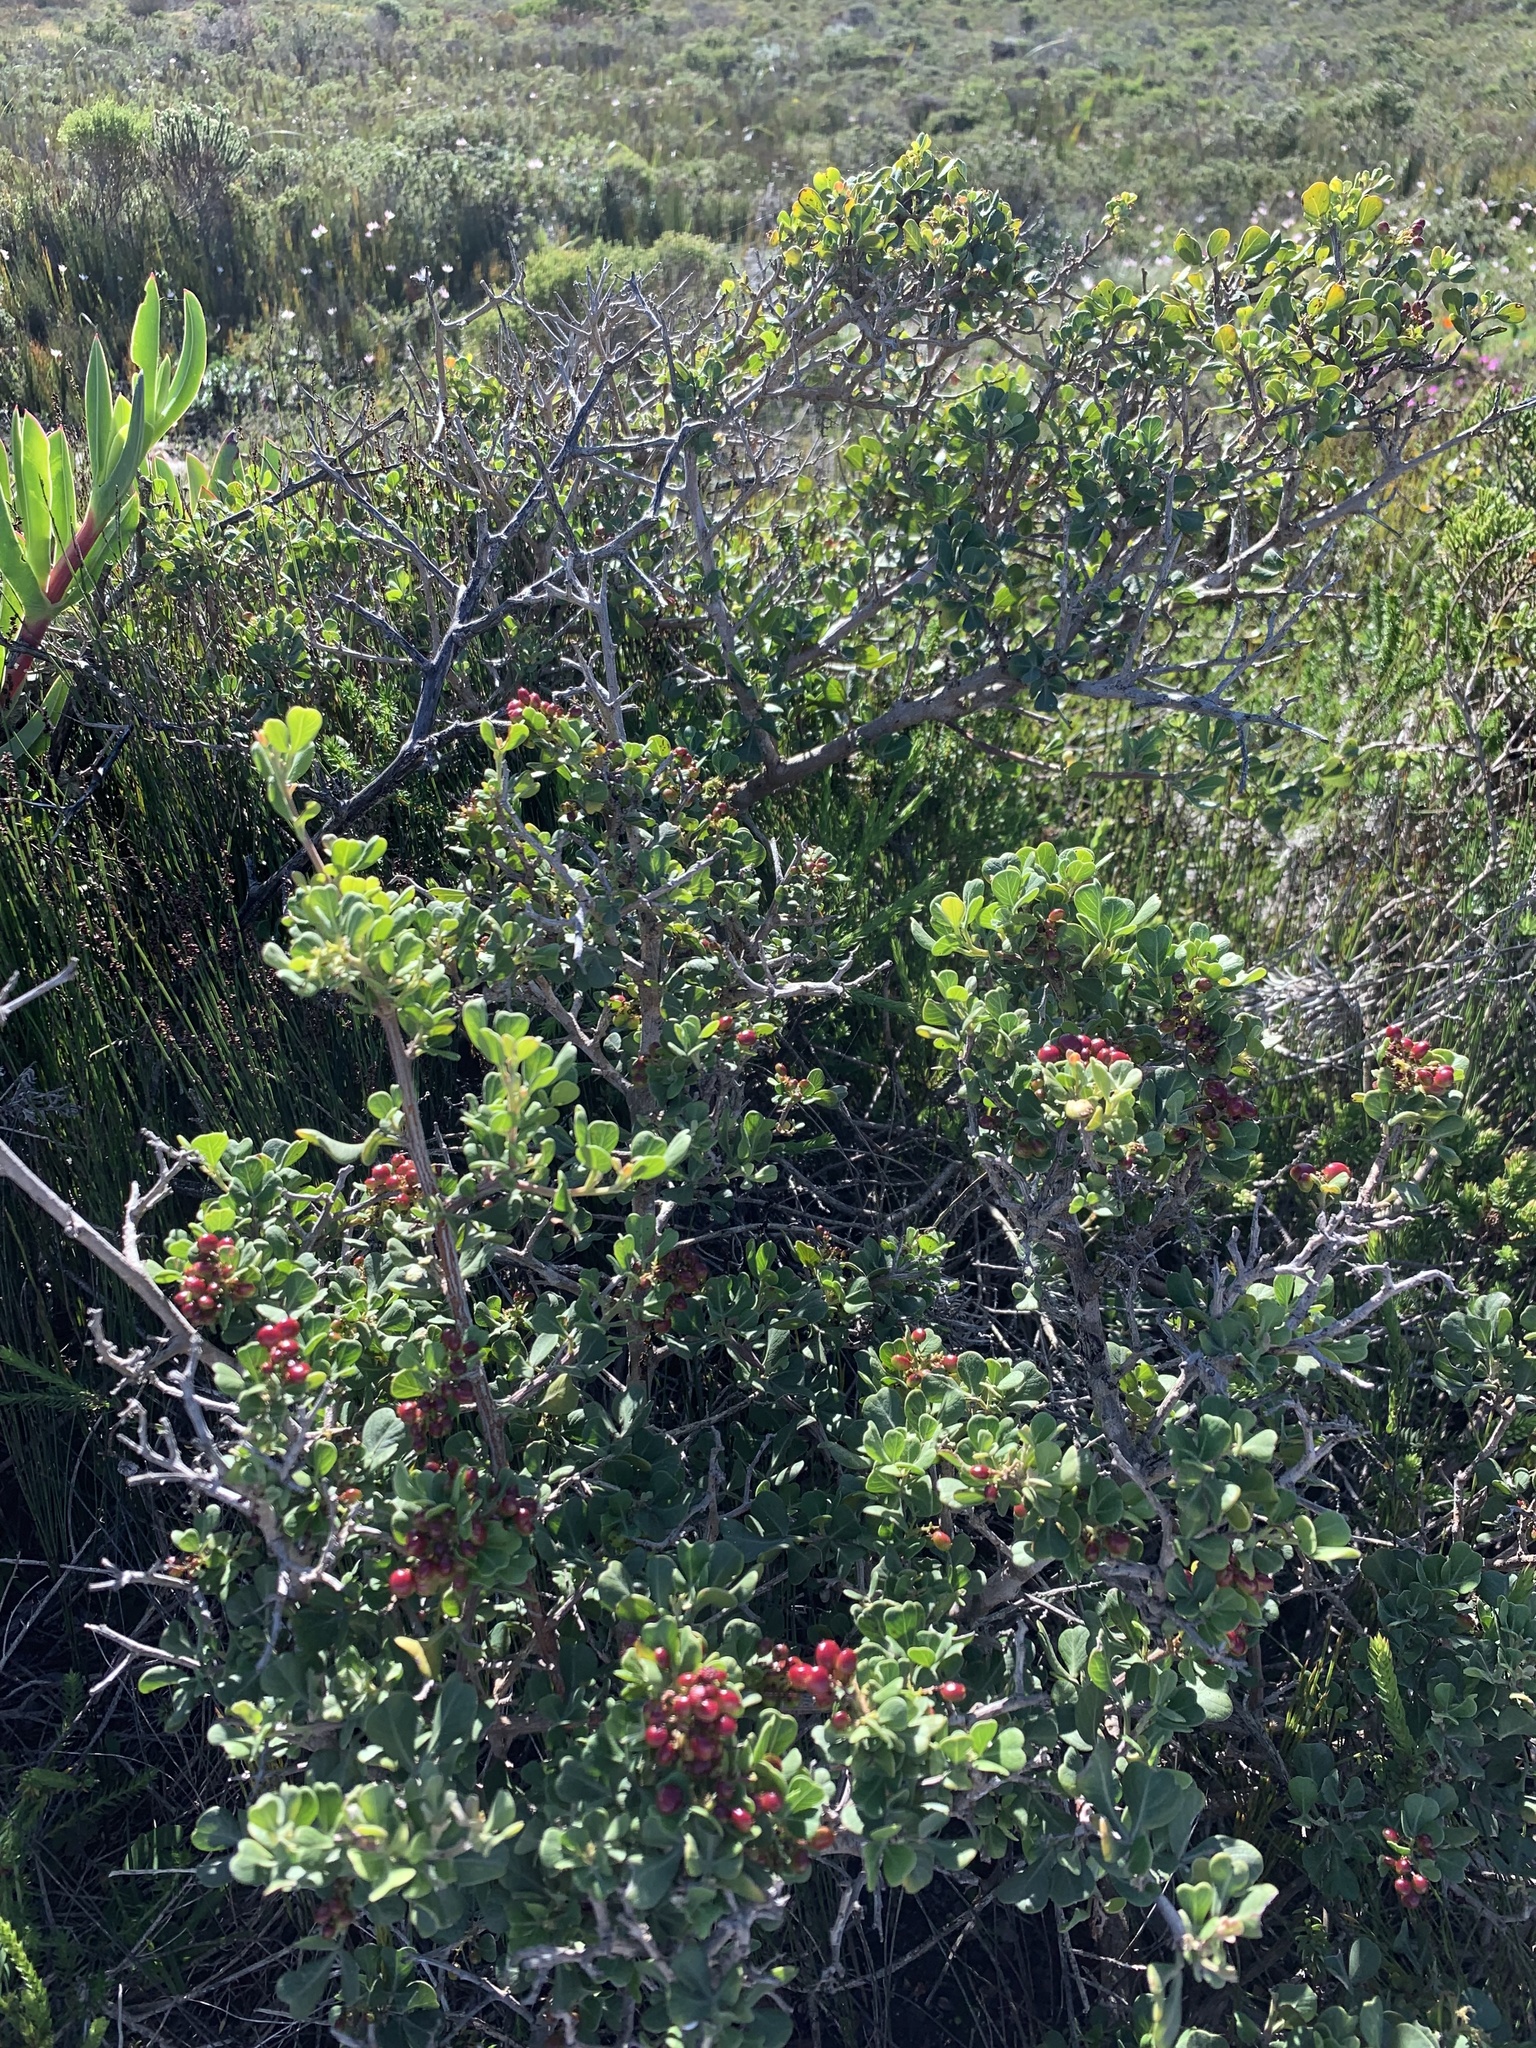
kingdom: Plantae
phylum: Tracheophyta
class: Magnoliopsida
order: Sapindales
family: Anacardiaceae
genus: Searsia
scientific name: Searsia glauca
